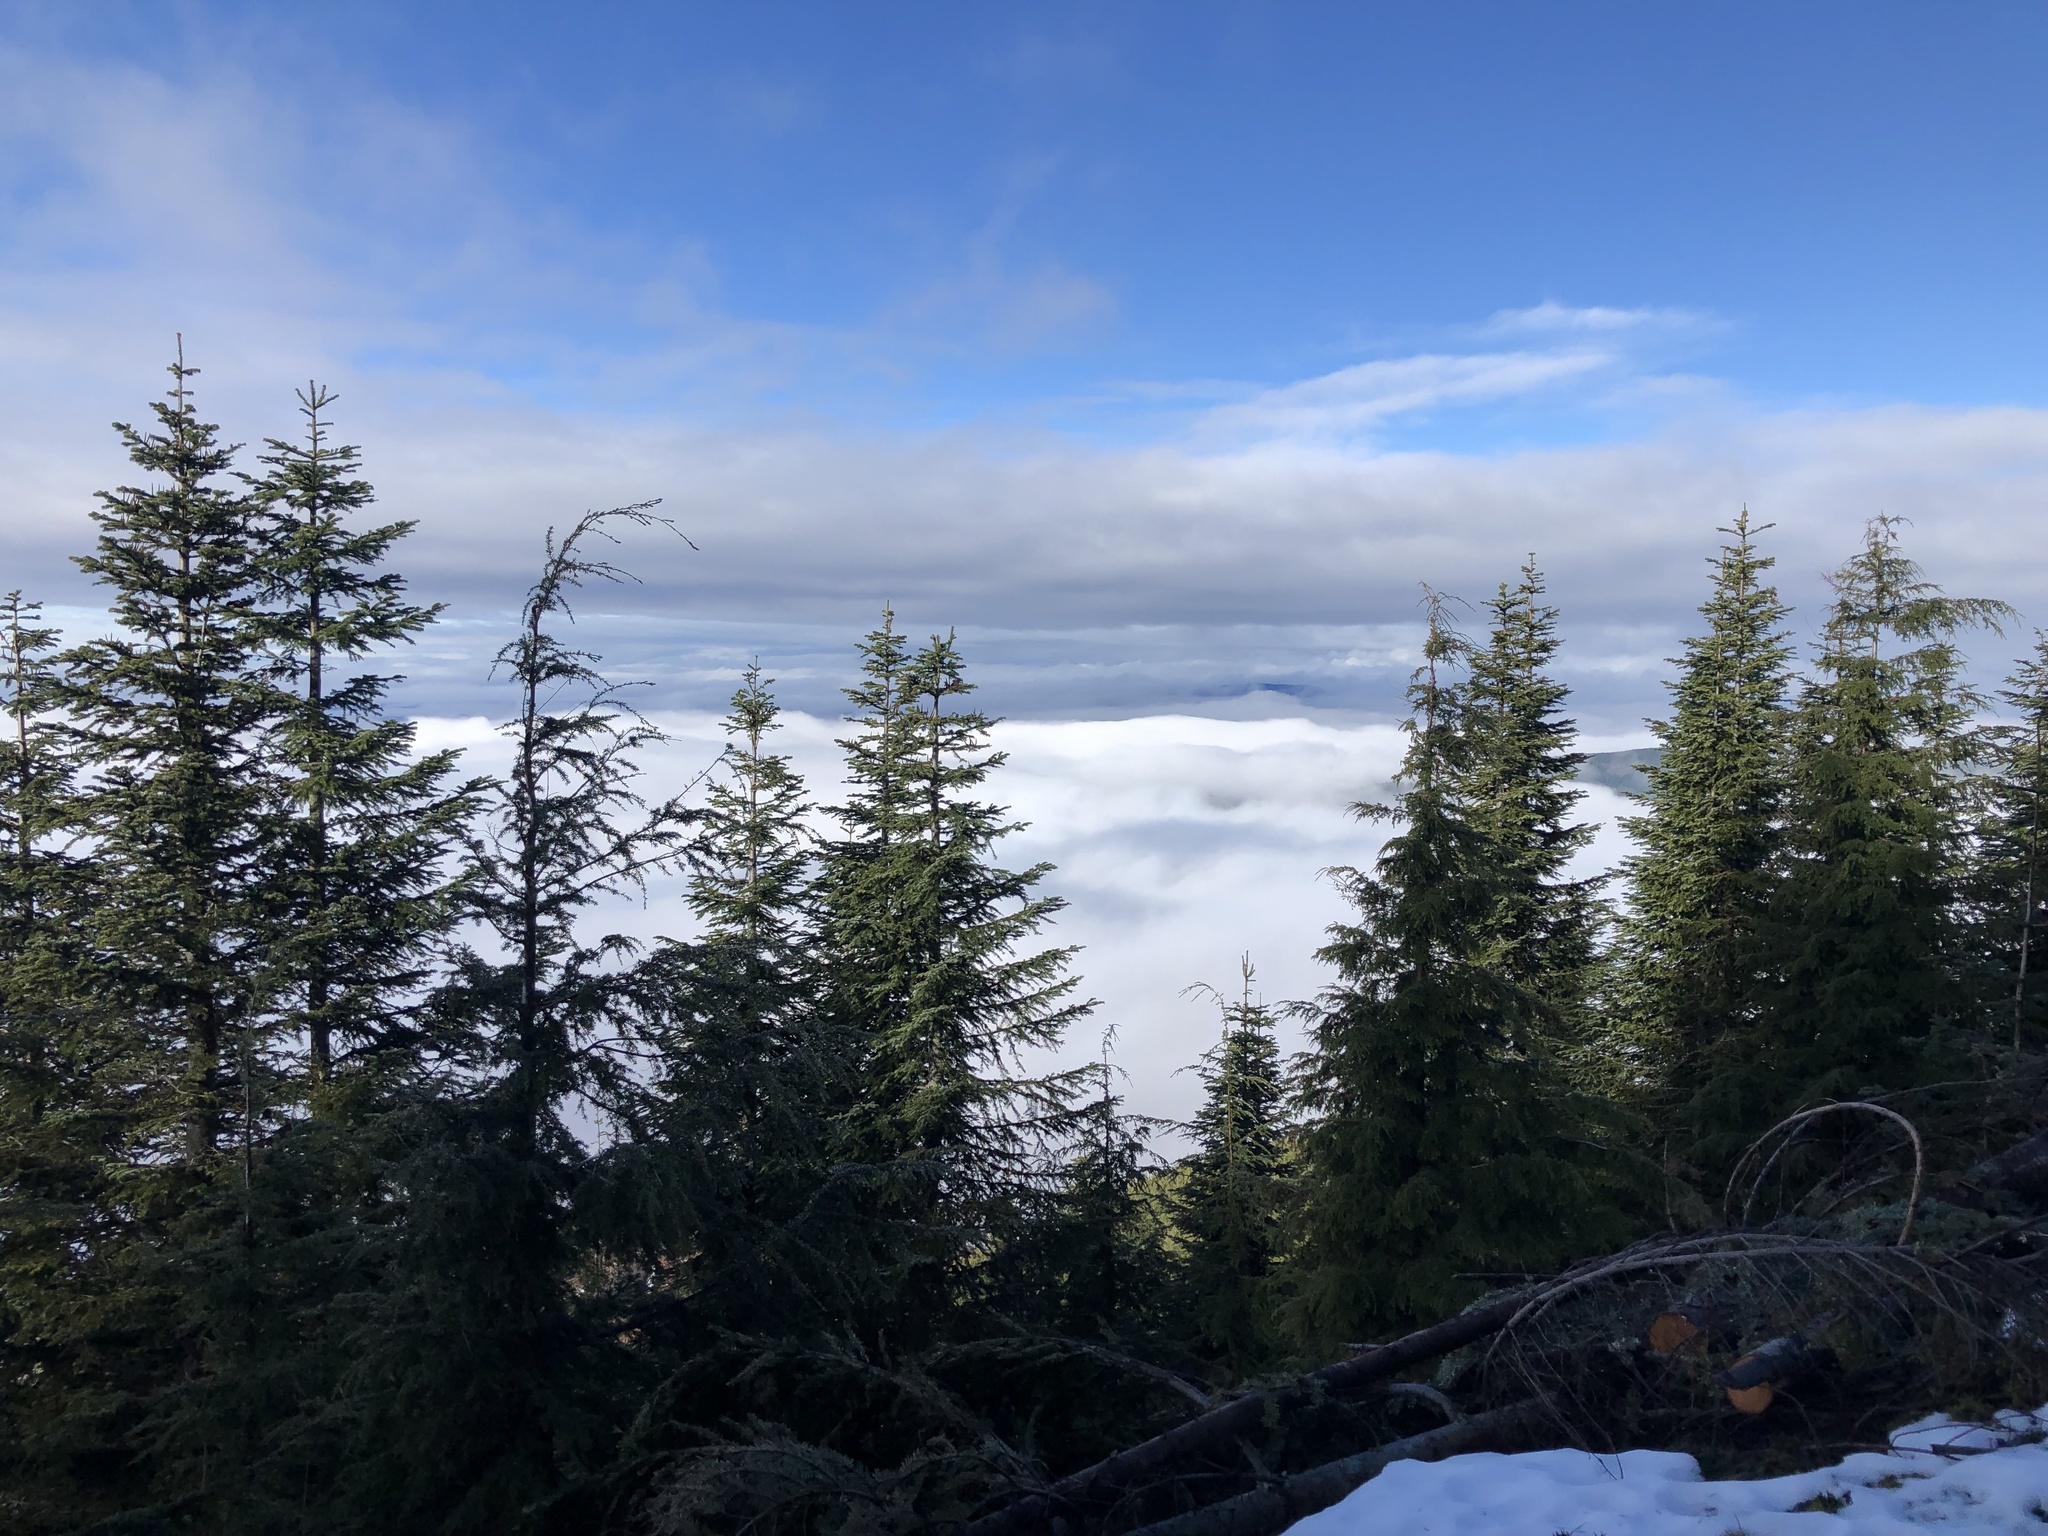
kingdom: Plantae
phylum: Tracheophyta
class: Pinopsida
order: Pinales
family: Pinaceae
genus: Tsuga
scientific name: Tsuga heterophylla
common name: Western hemlock
